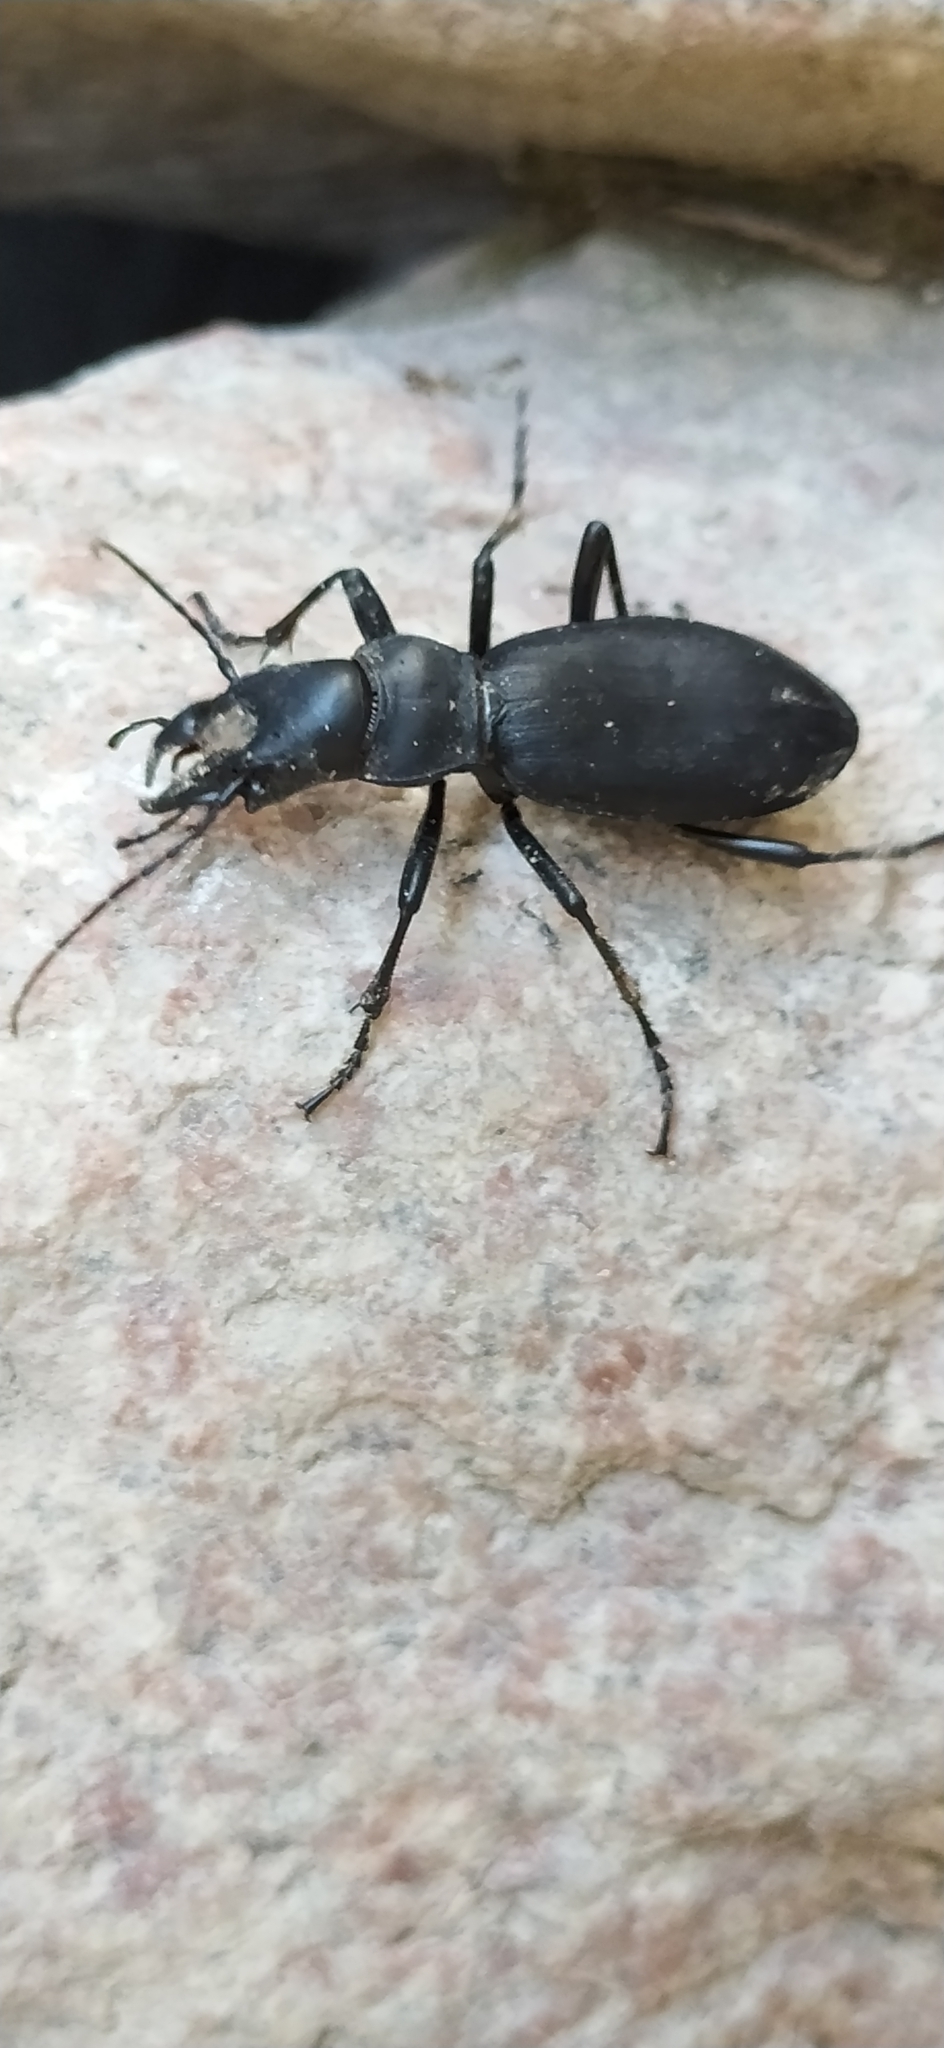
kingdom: Animalia
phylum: Arthropoda
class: Insecta
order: Coleoptera
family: Carabidae
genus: Carabus
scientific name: Carabus turcomanorum
